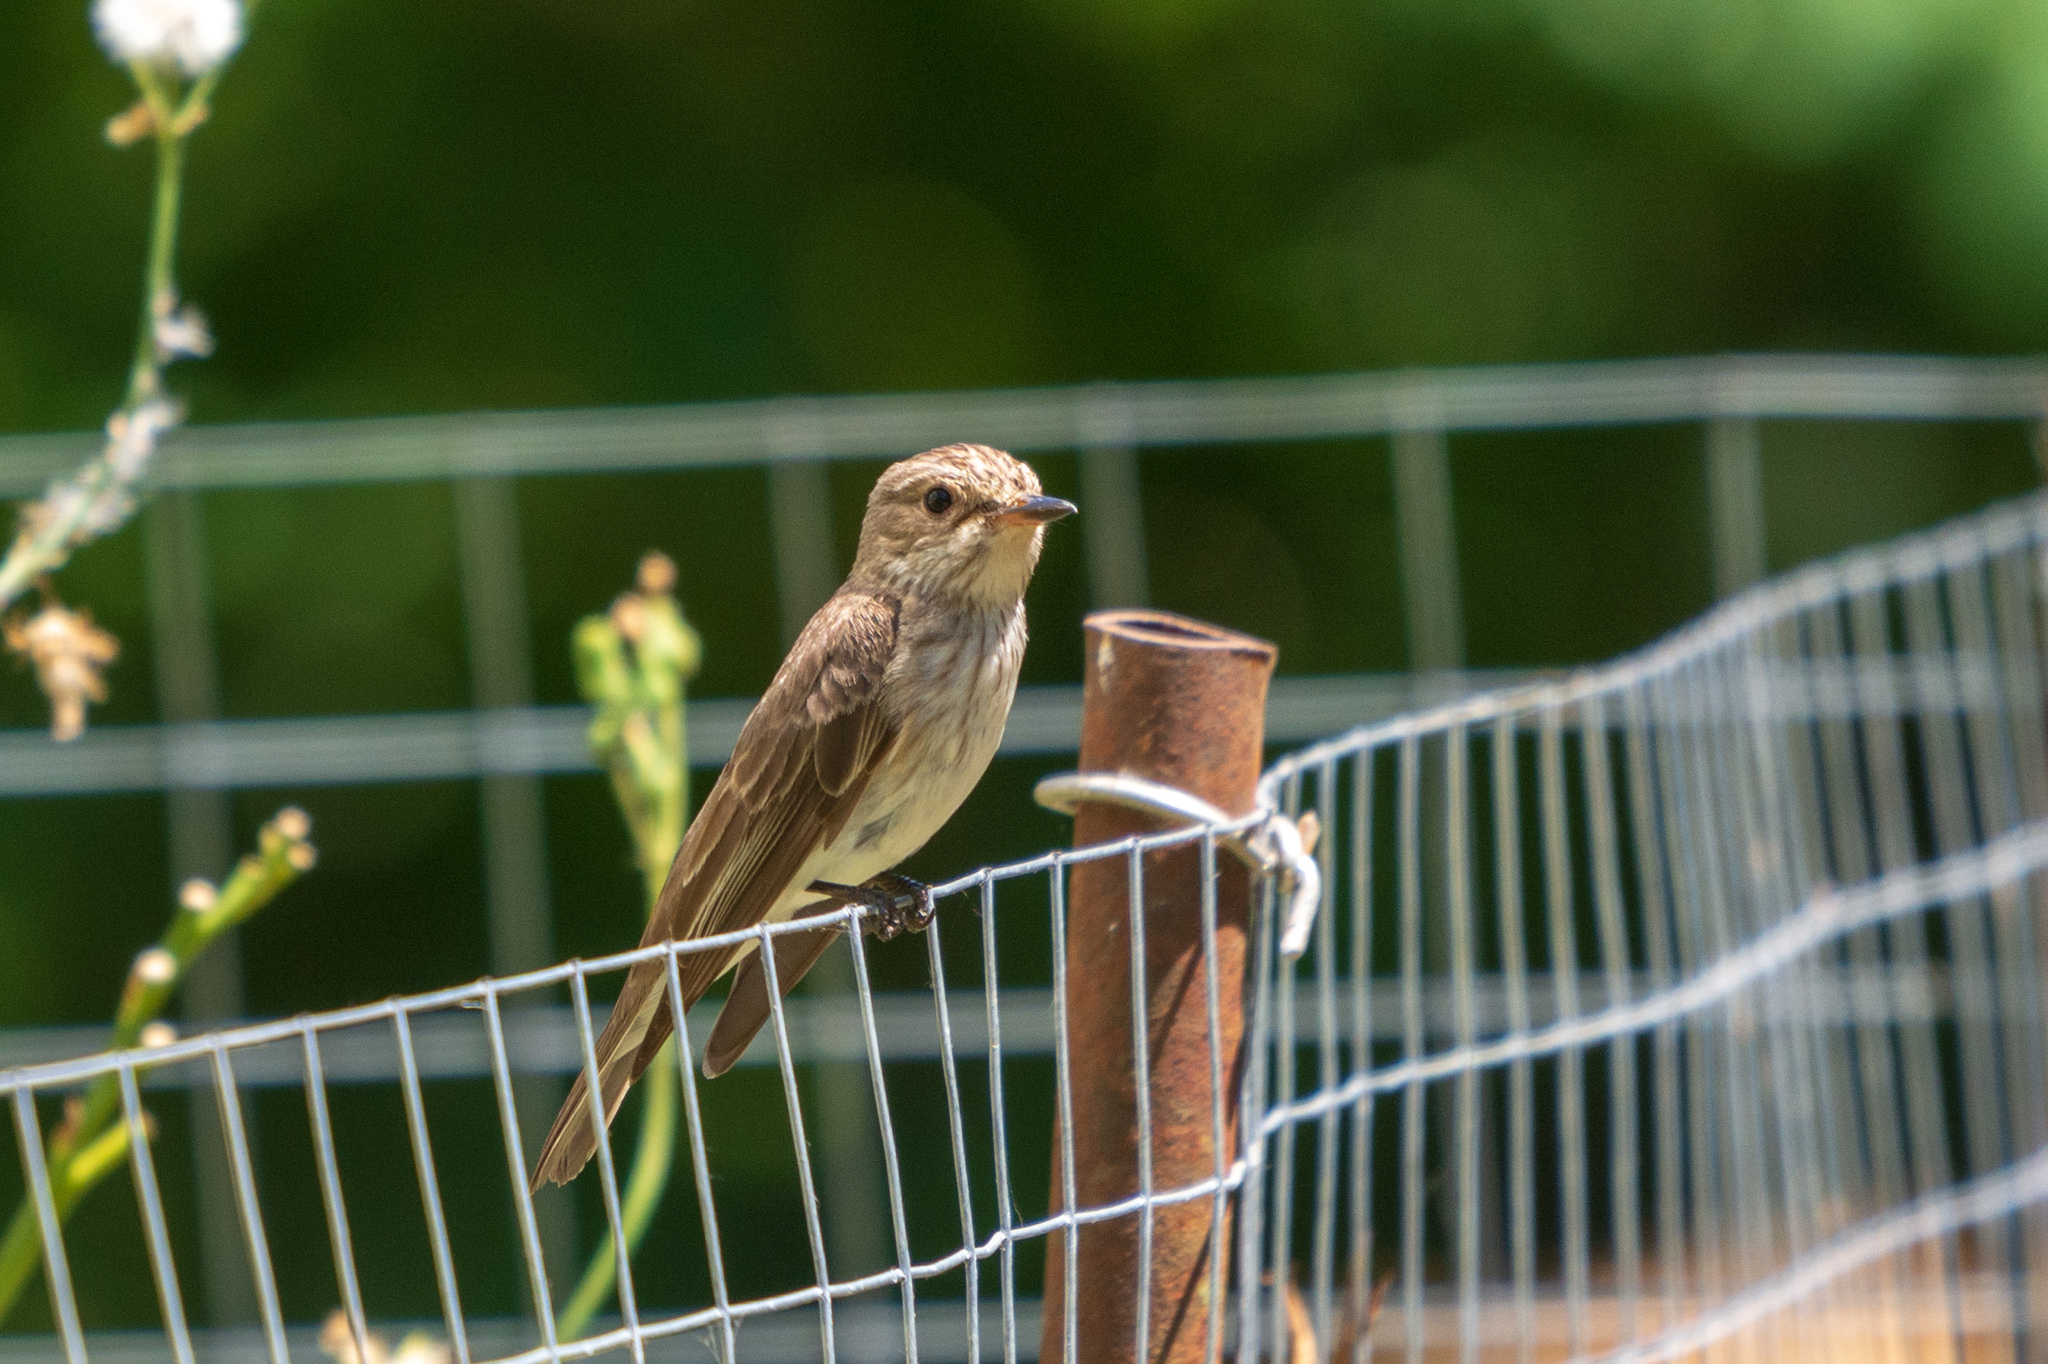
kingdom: Animalia
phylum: Chordata
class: Aves
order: Passeriformes
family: Muscicapidae
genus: Muscicapa
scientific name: Muscicapa striata
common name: Spotted flycatcher
